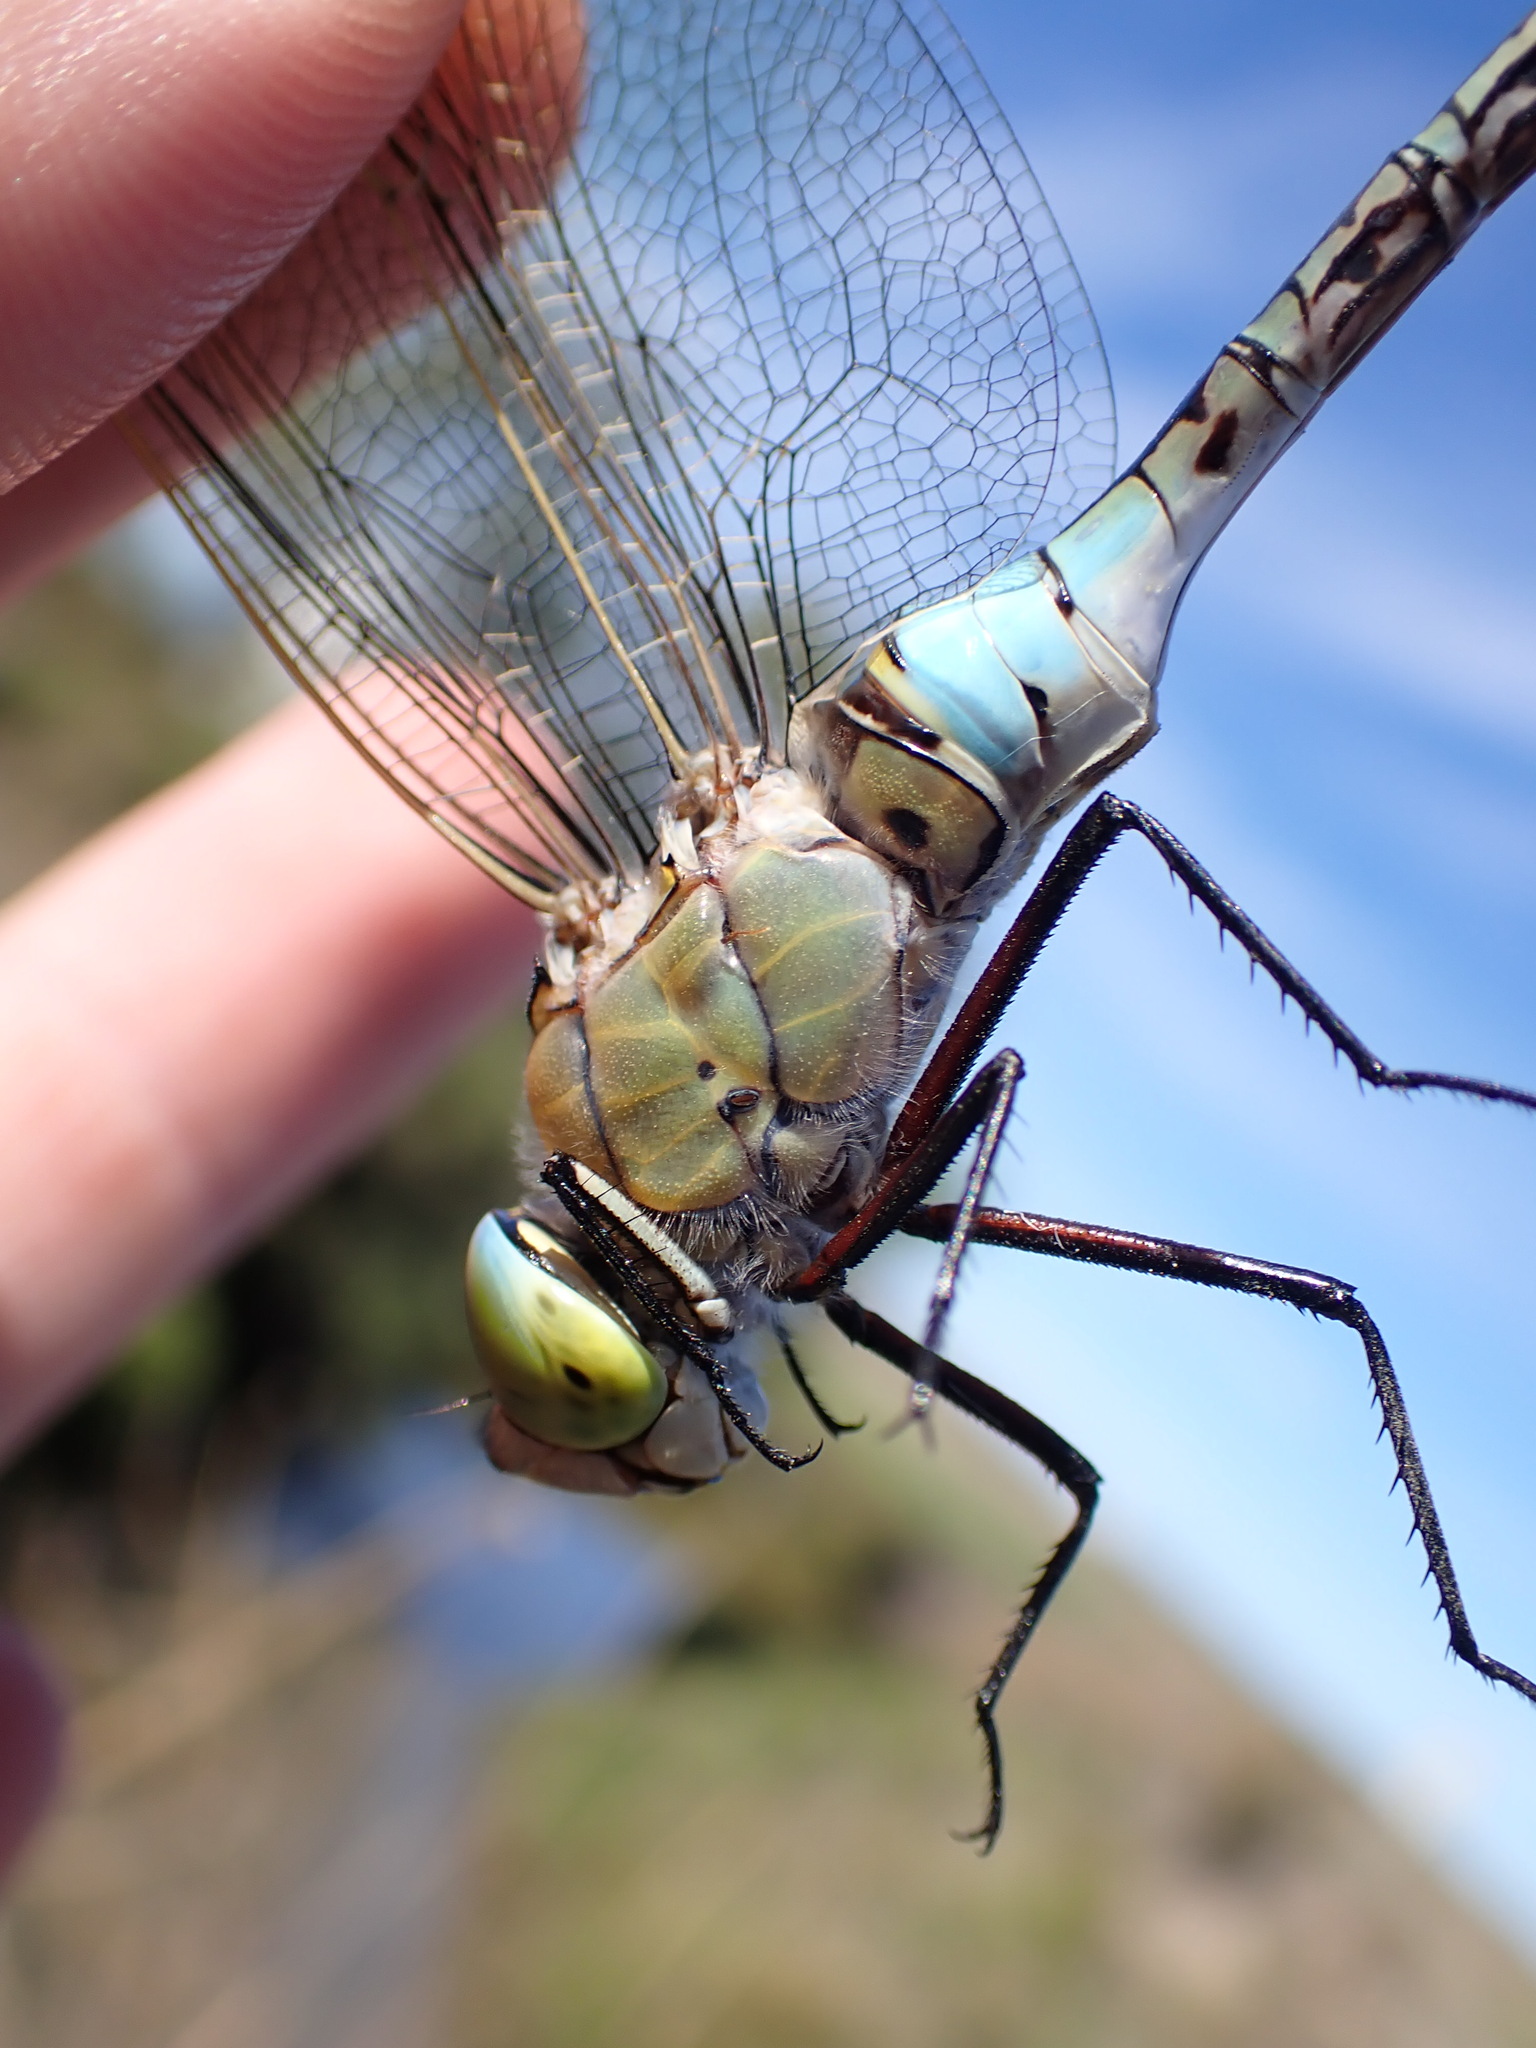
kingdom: Animalia
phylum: Arthropoda
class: Insecta
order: Odonata
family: Aeshnidae
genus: Anax
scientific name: Anax parthenope
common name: Lesser emperor
